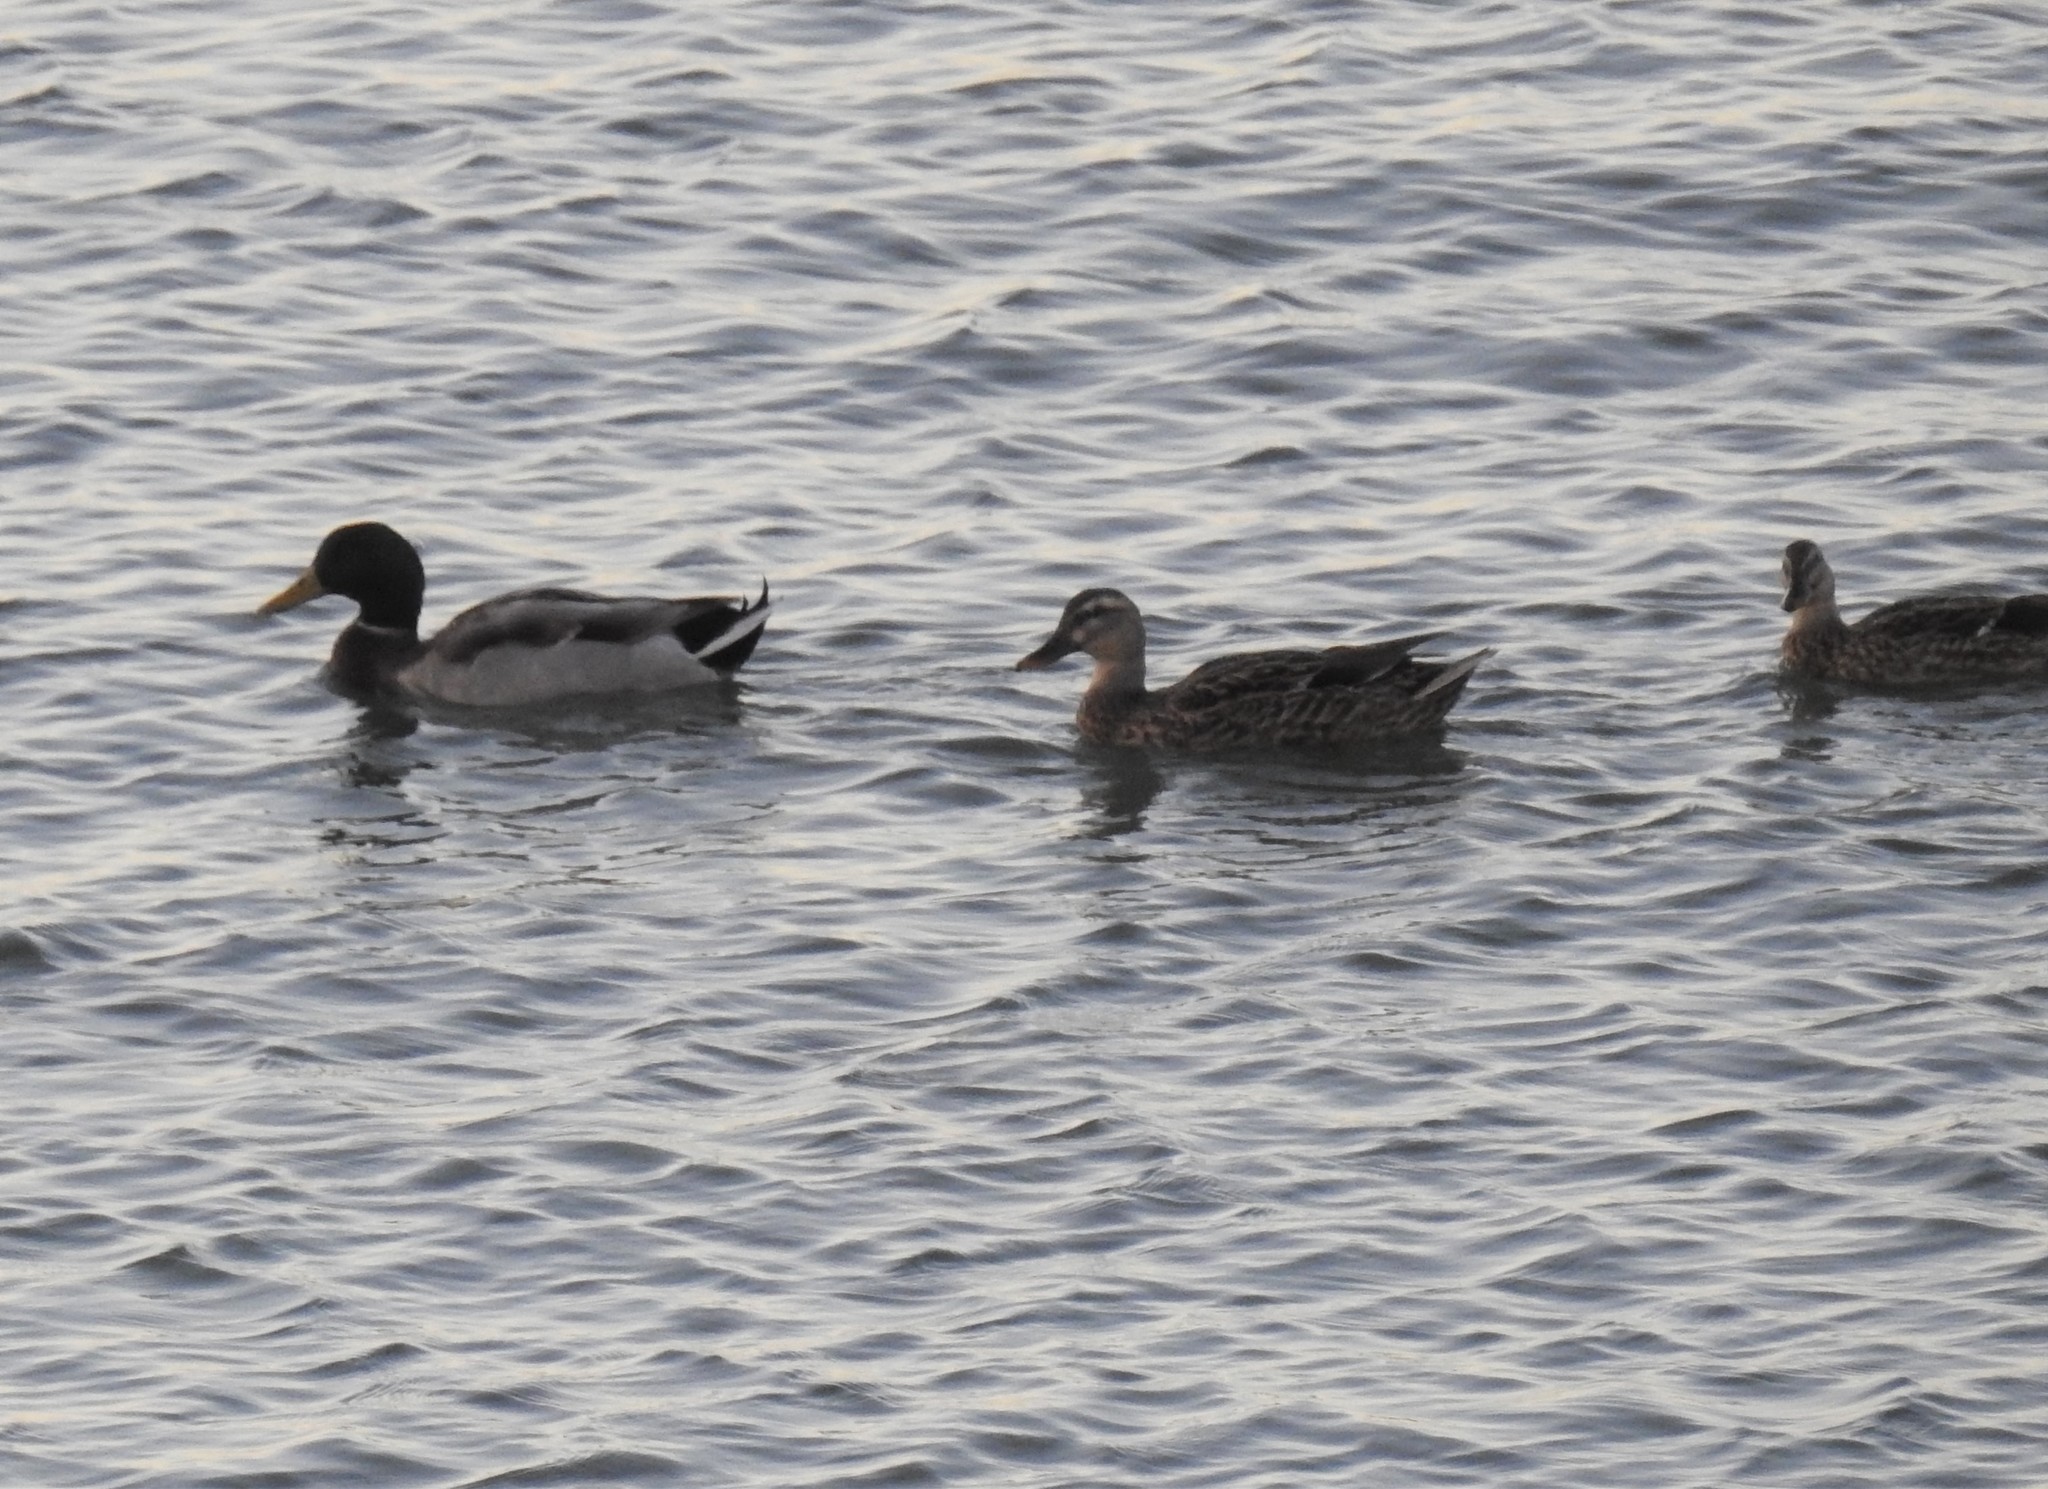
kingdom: Animalia
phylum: Chordata
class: Aves
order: Anseriformes
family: Anatidae
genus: Anas
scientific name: Anas platyrhynchos
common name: Mallard
